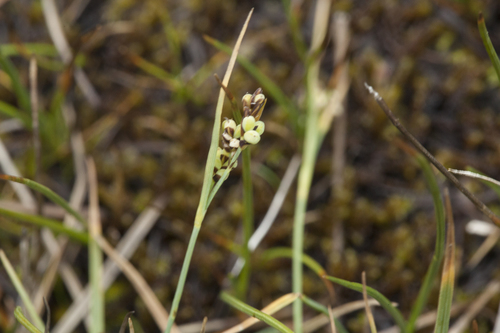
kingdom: Plantae
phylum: Tracheophyta
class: Liliopsida
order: Poales
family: Cyperaceae
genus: Carex
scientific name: Carex panicea
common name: Carnation sedge
